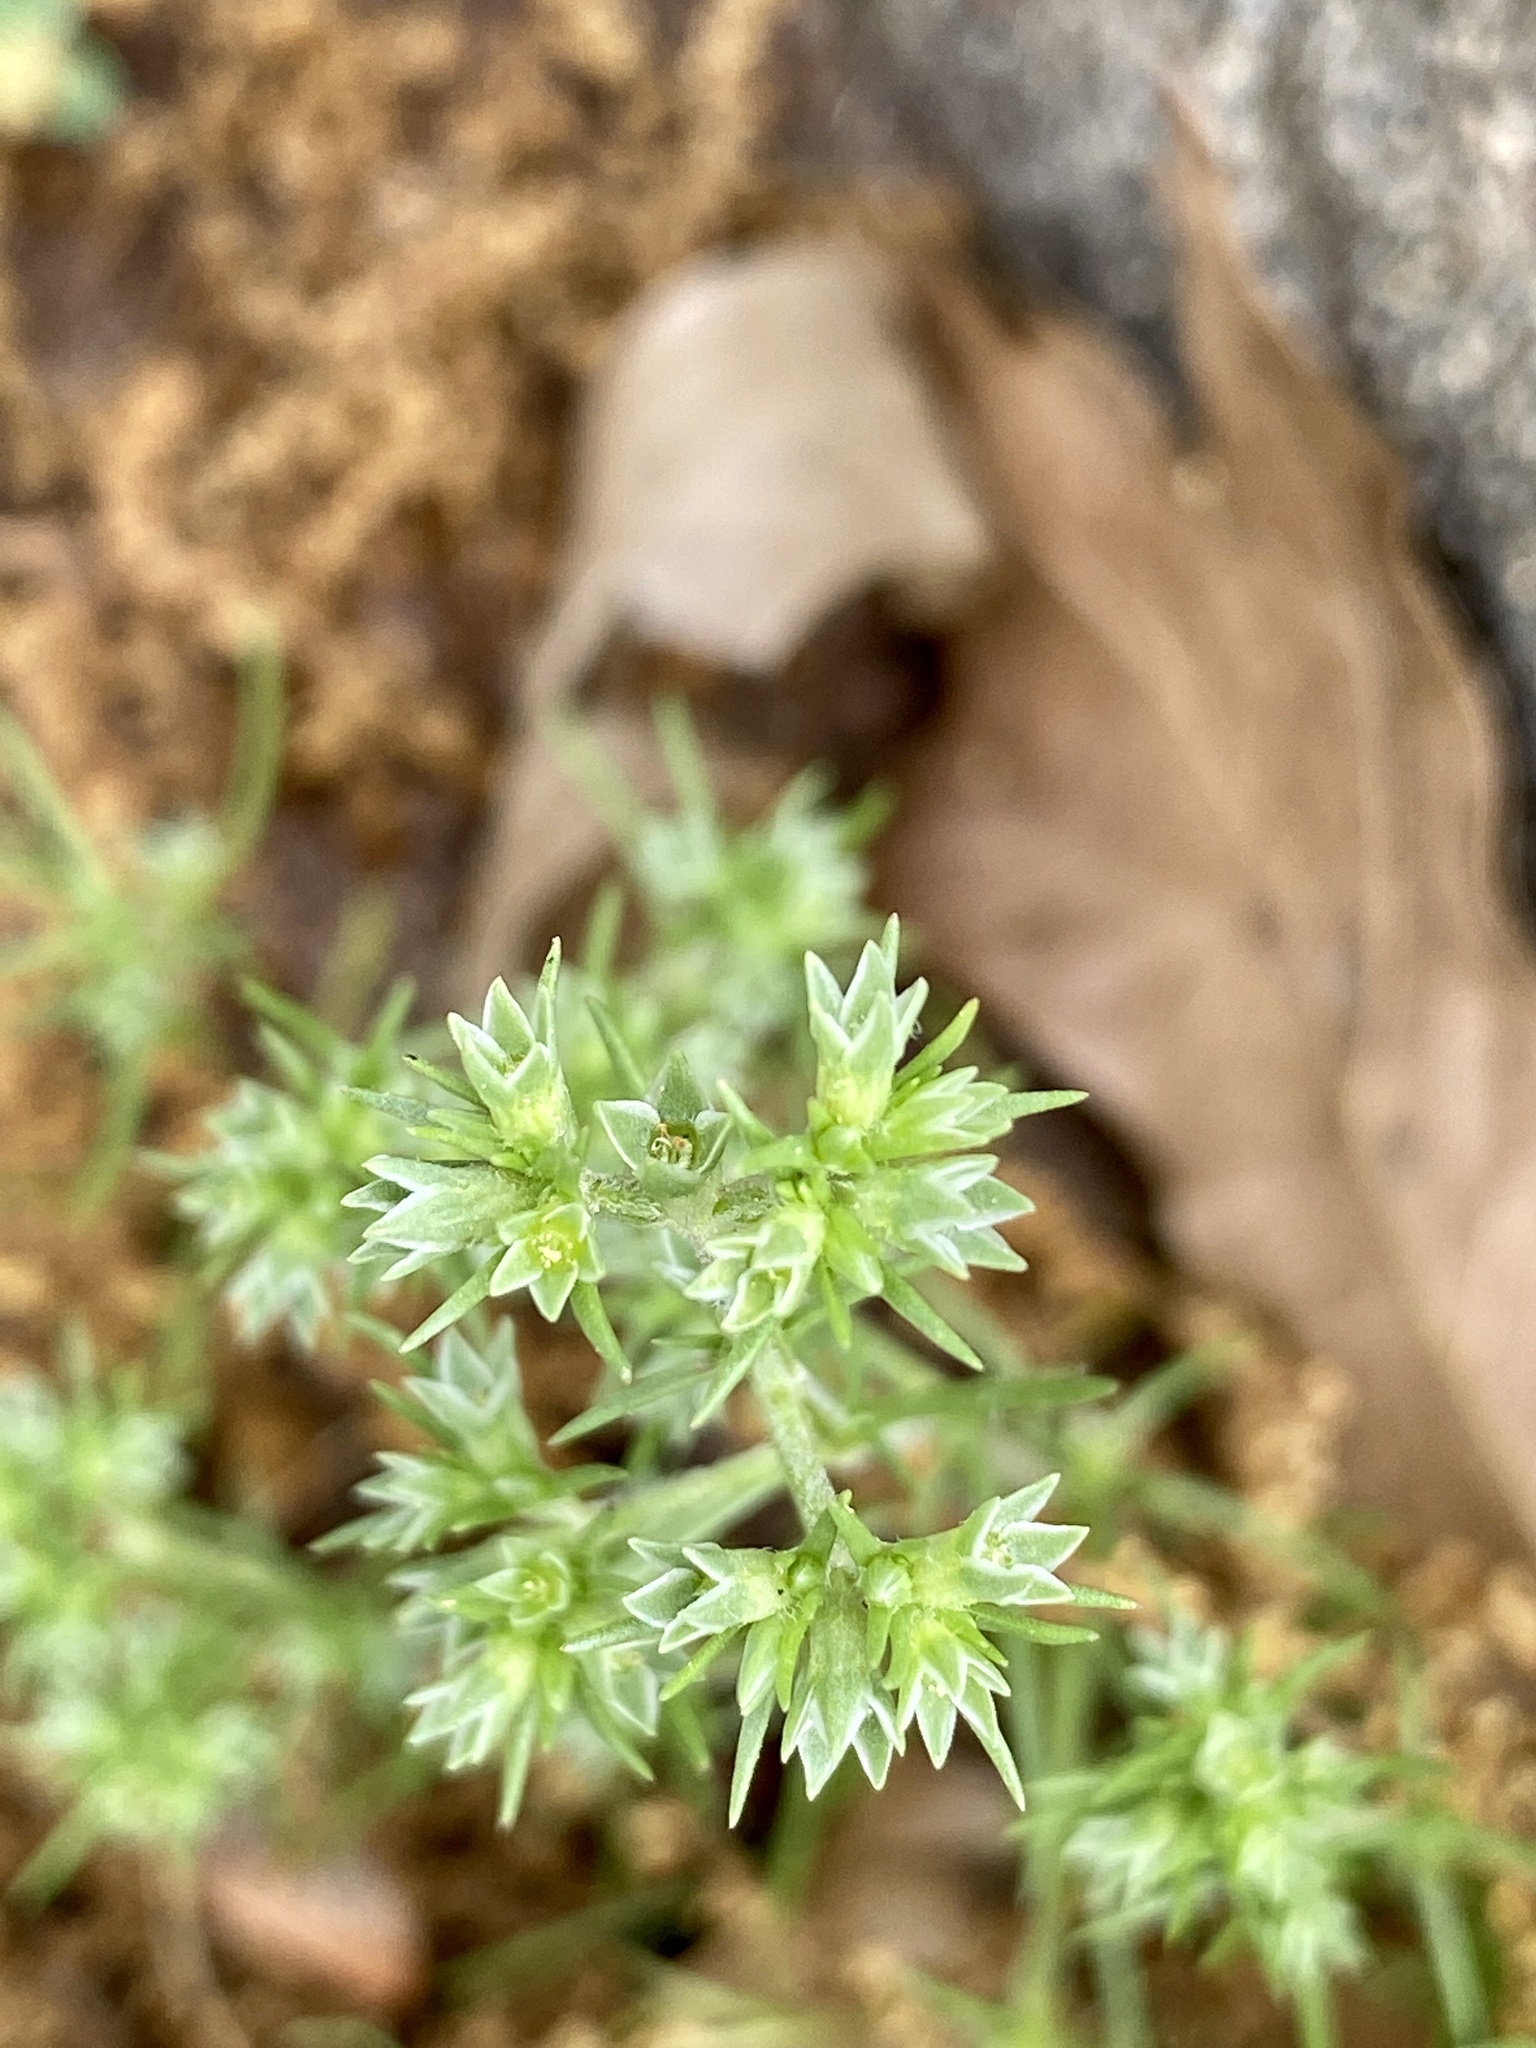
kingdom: Plantae
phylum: Tracheophyta
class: Magnoliopsida
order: Caryophyllales
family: Caryophyllaceae
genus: Scleranthus
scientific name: Scleranthus annuus
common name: Annual knawel
